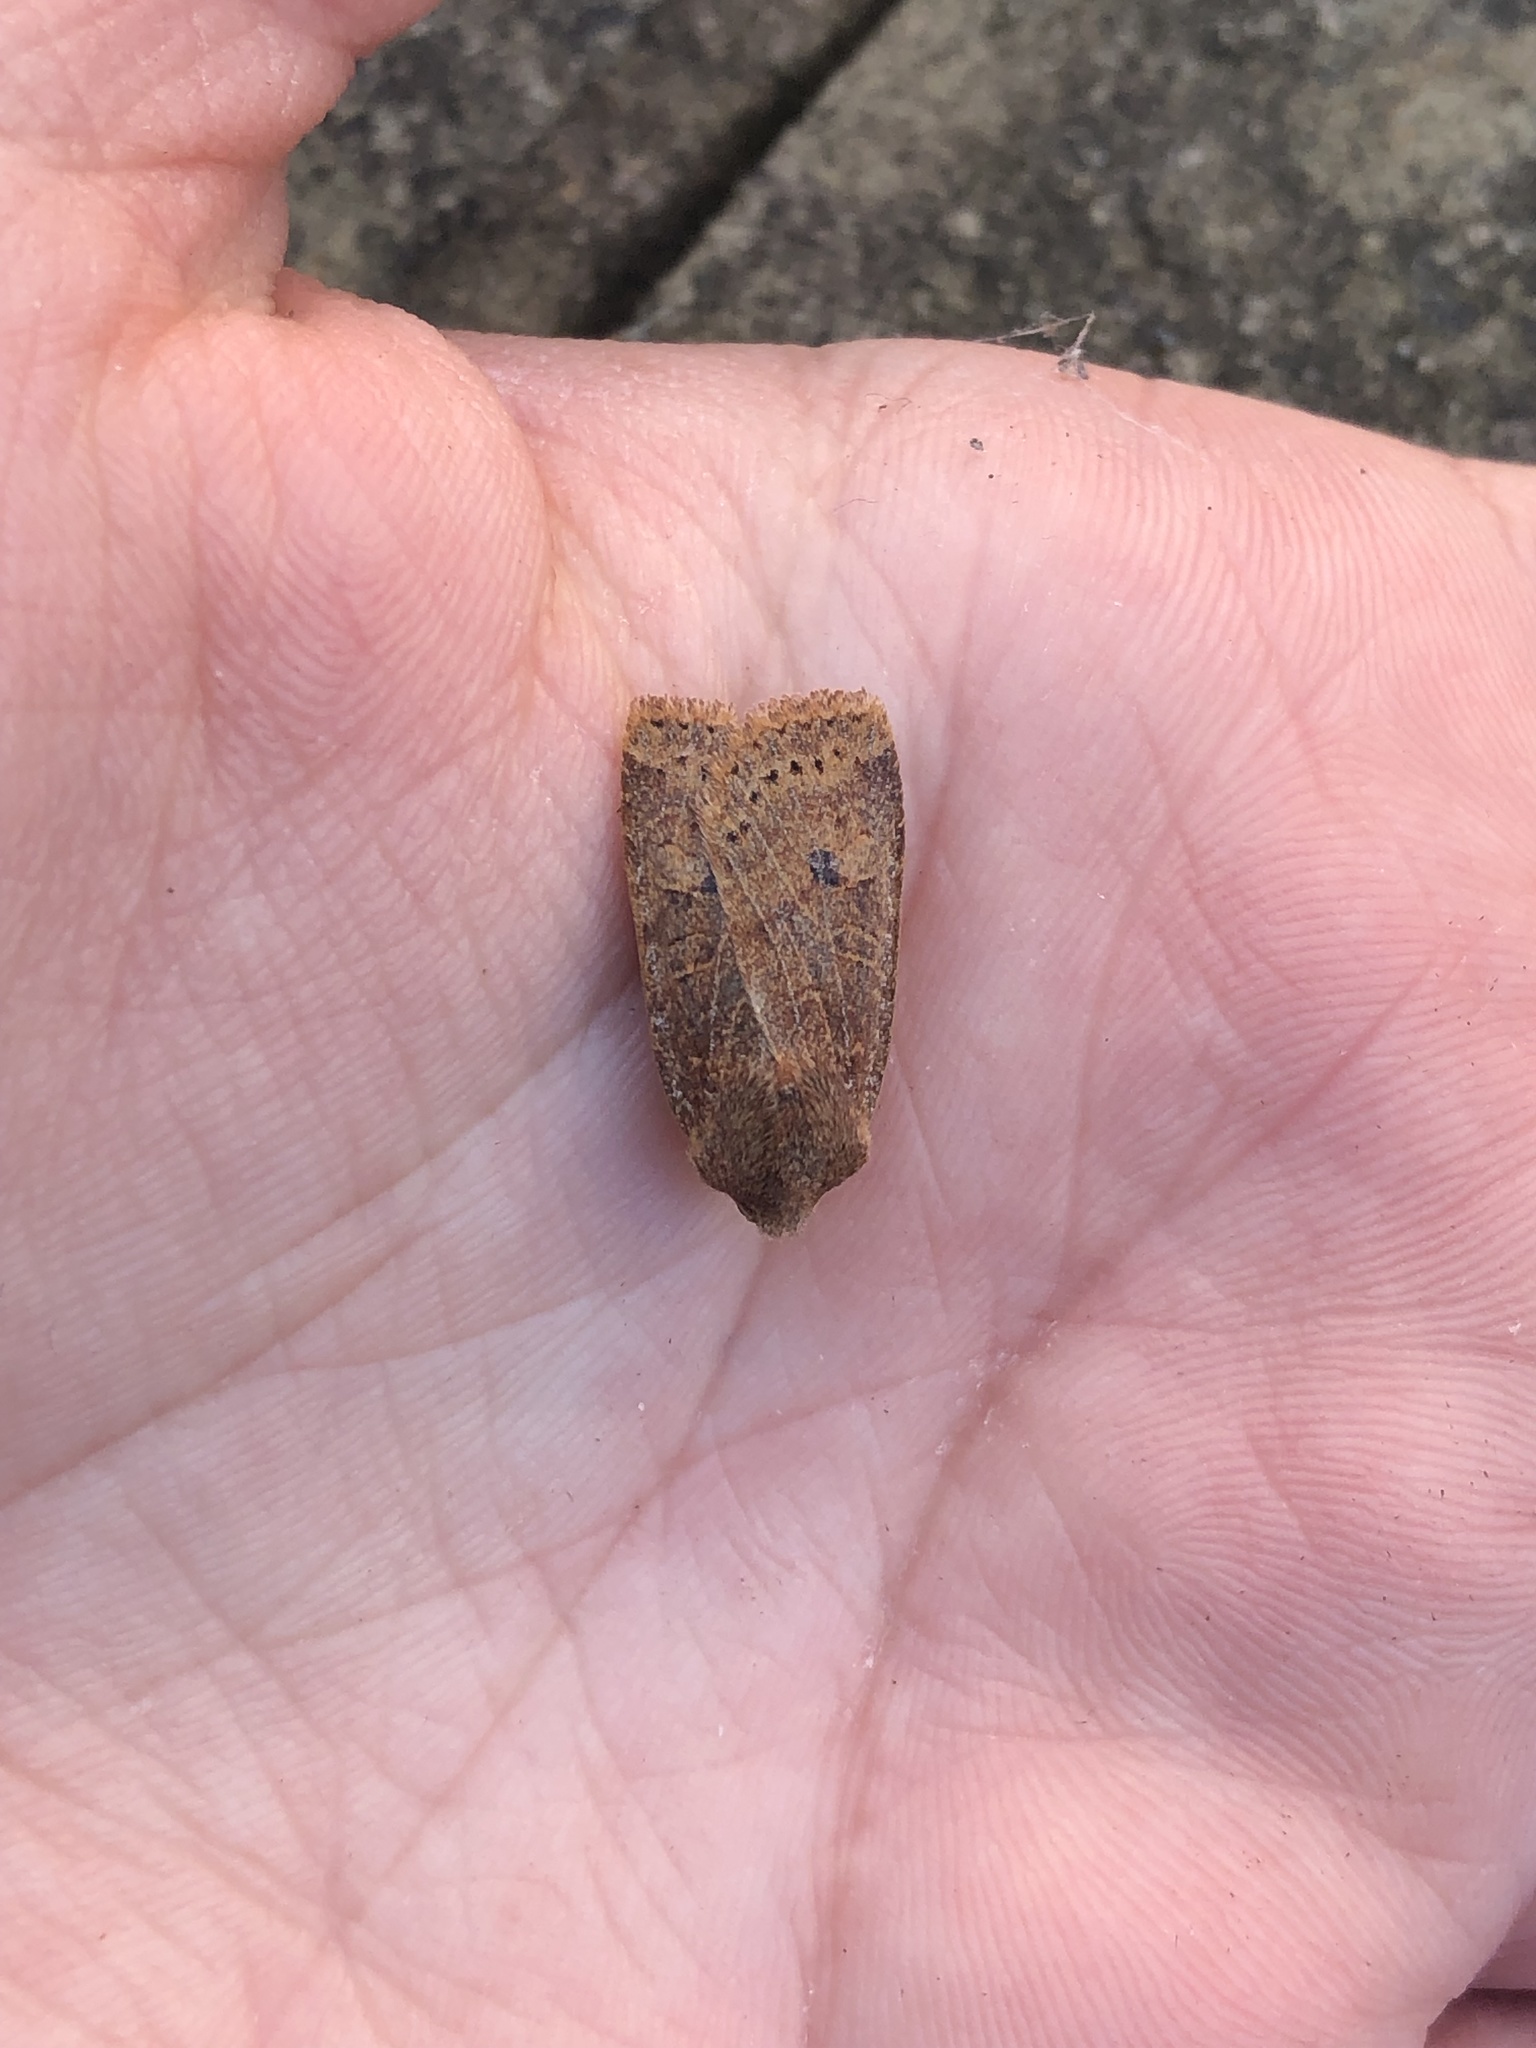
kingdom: Animalia
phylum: Arthropoda
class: Insecta
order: Lepidoptera
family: Noctuidae
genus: Conistra
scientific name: Conistra vaccinii
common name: Chestnut
